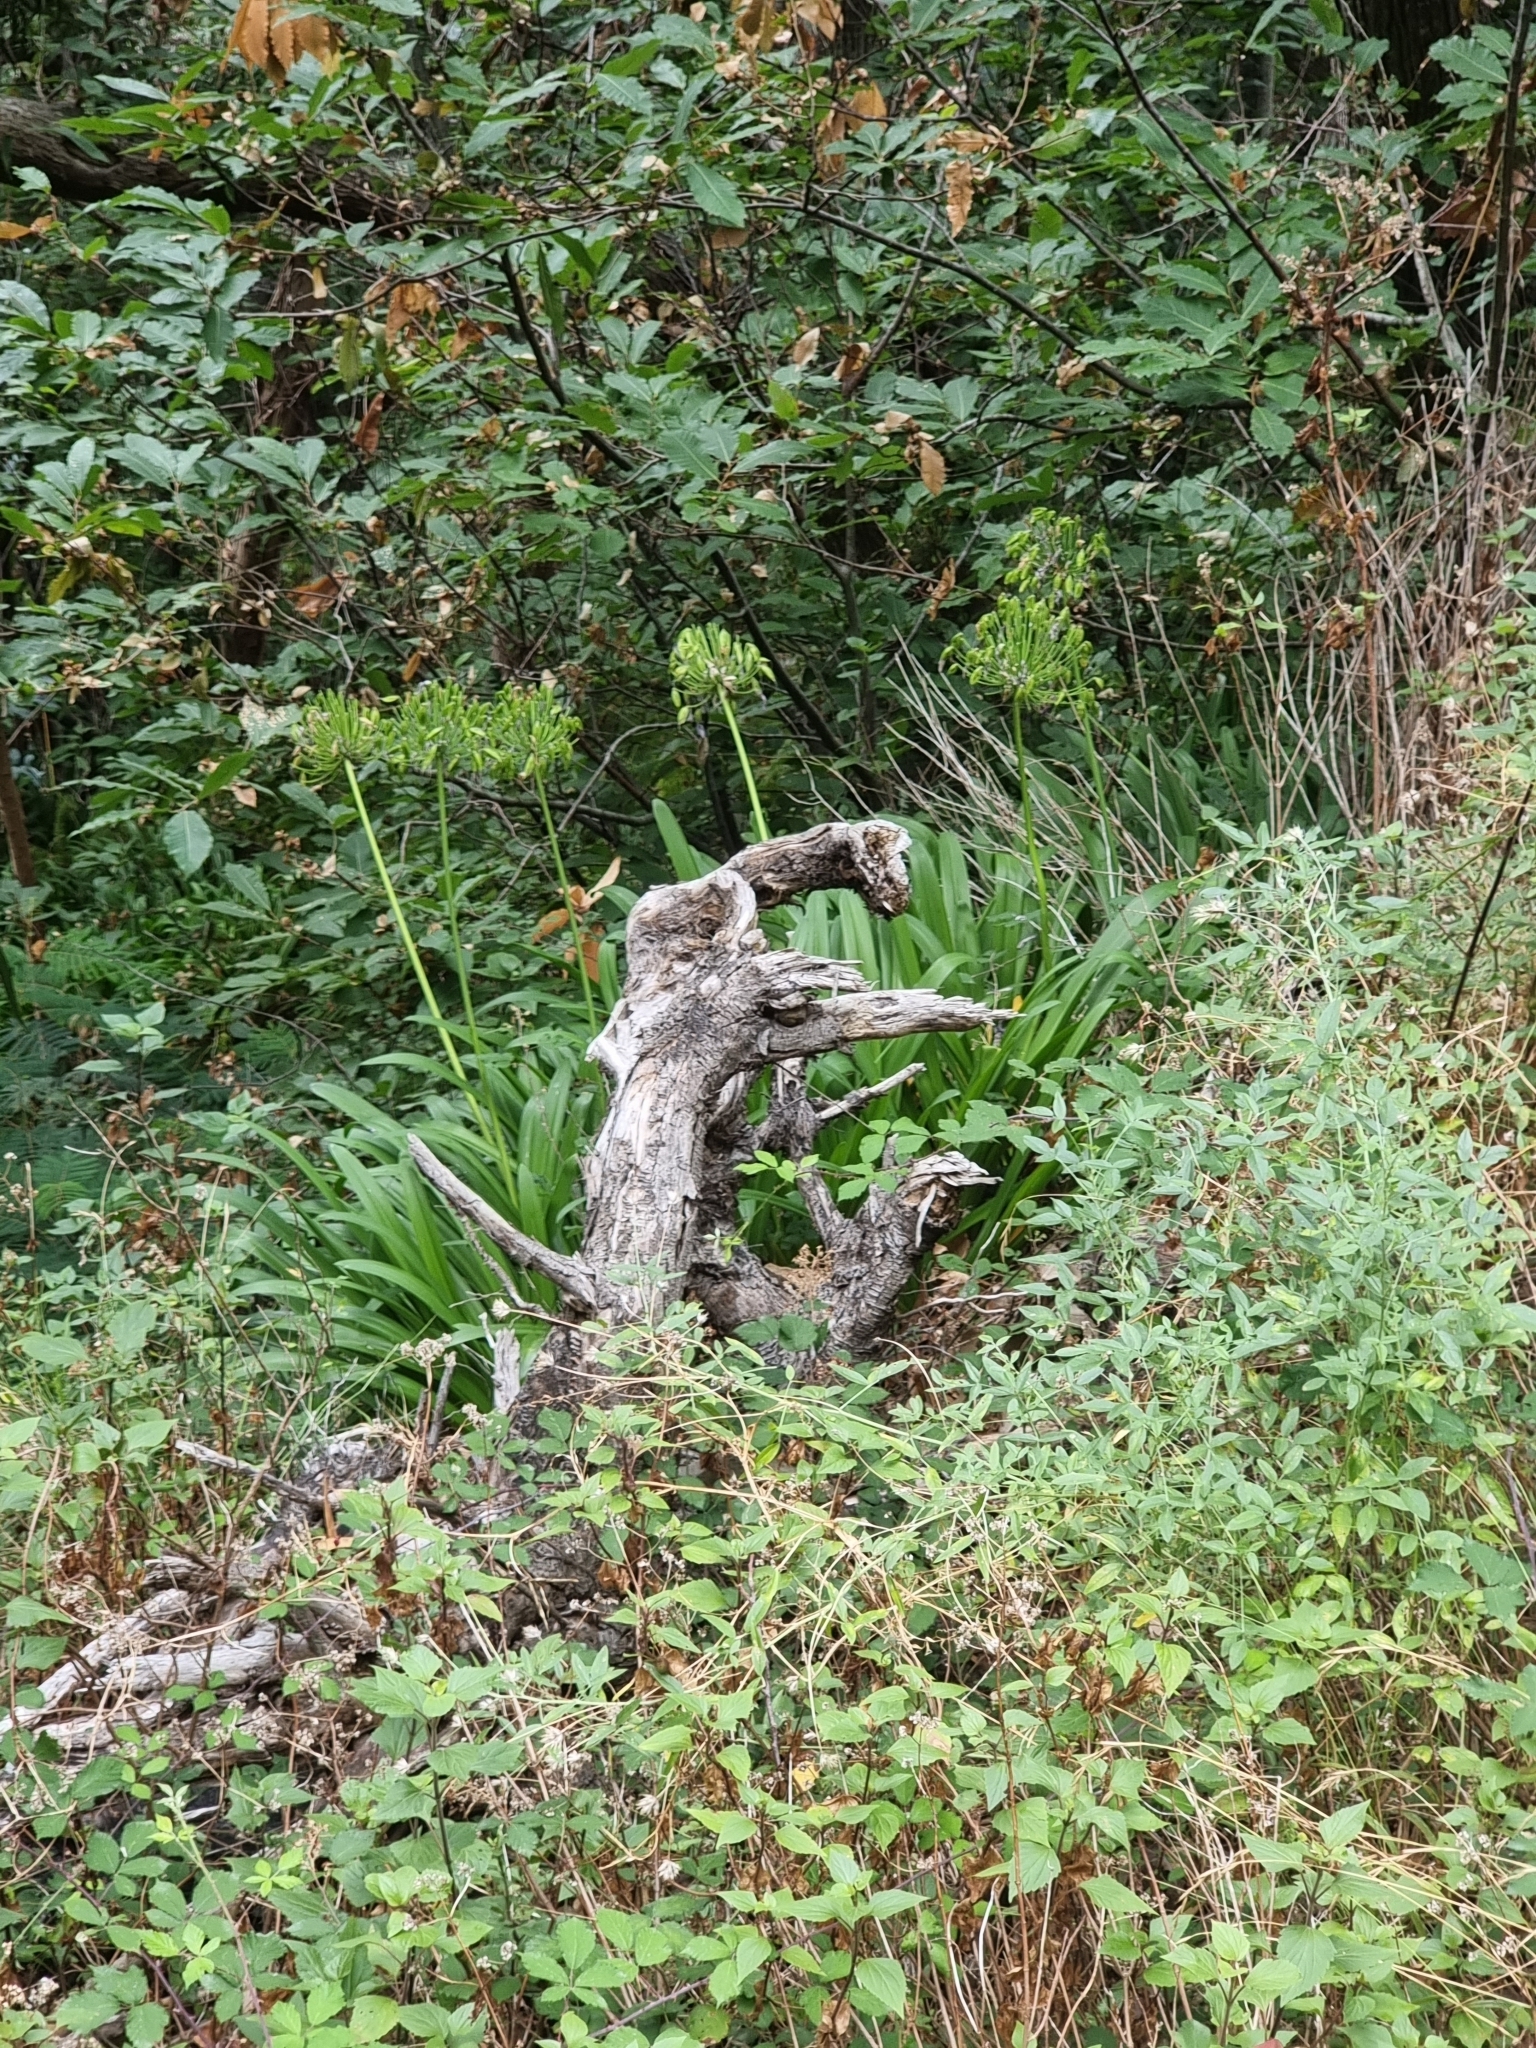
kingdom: Plantae
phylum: Tracheophyta
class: Liliopsida
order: Asparagales
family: Amaryllidaceae
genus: Agapanthus
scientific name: Agapanthus praecox
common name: African-lily
